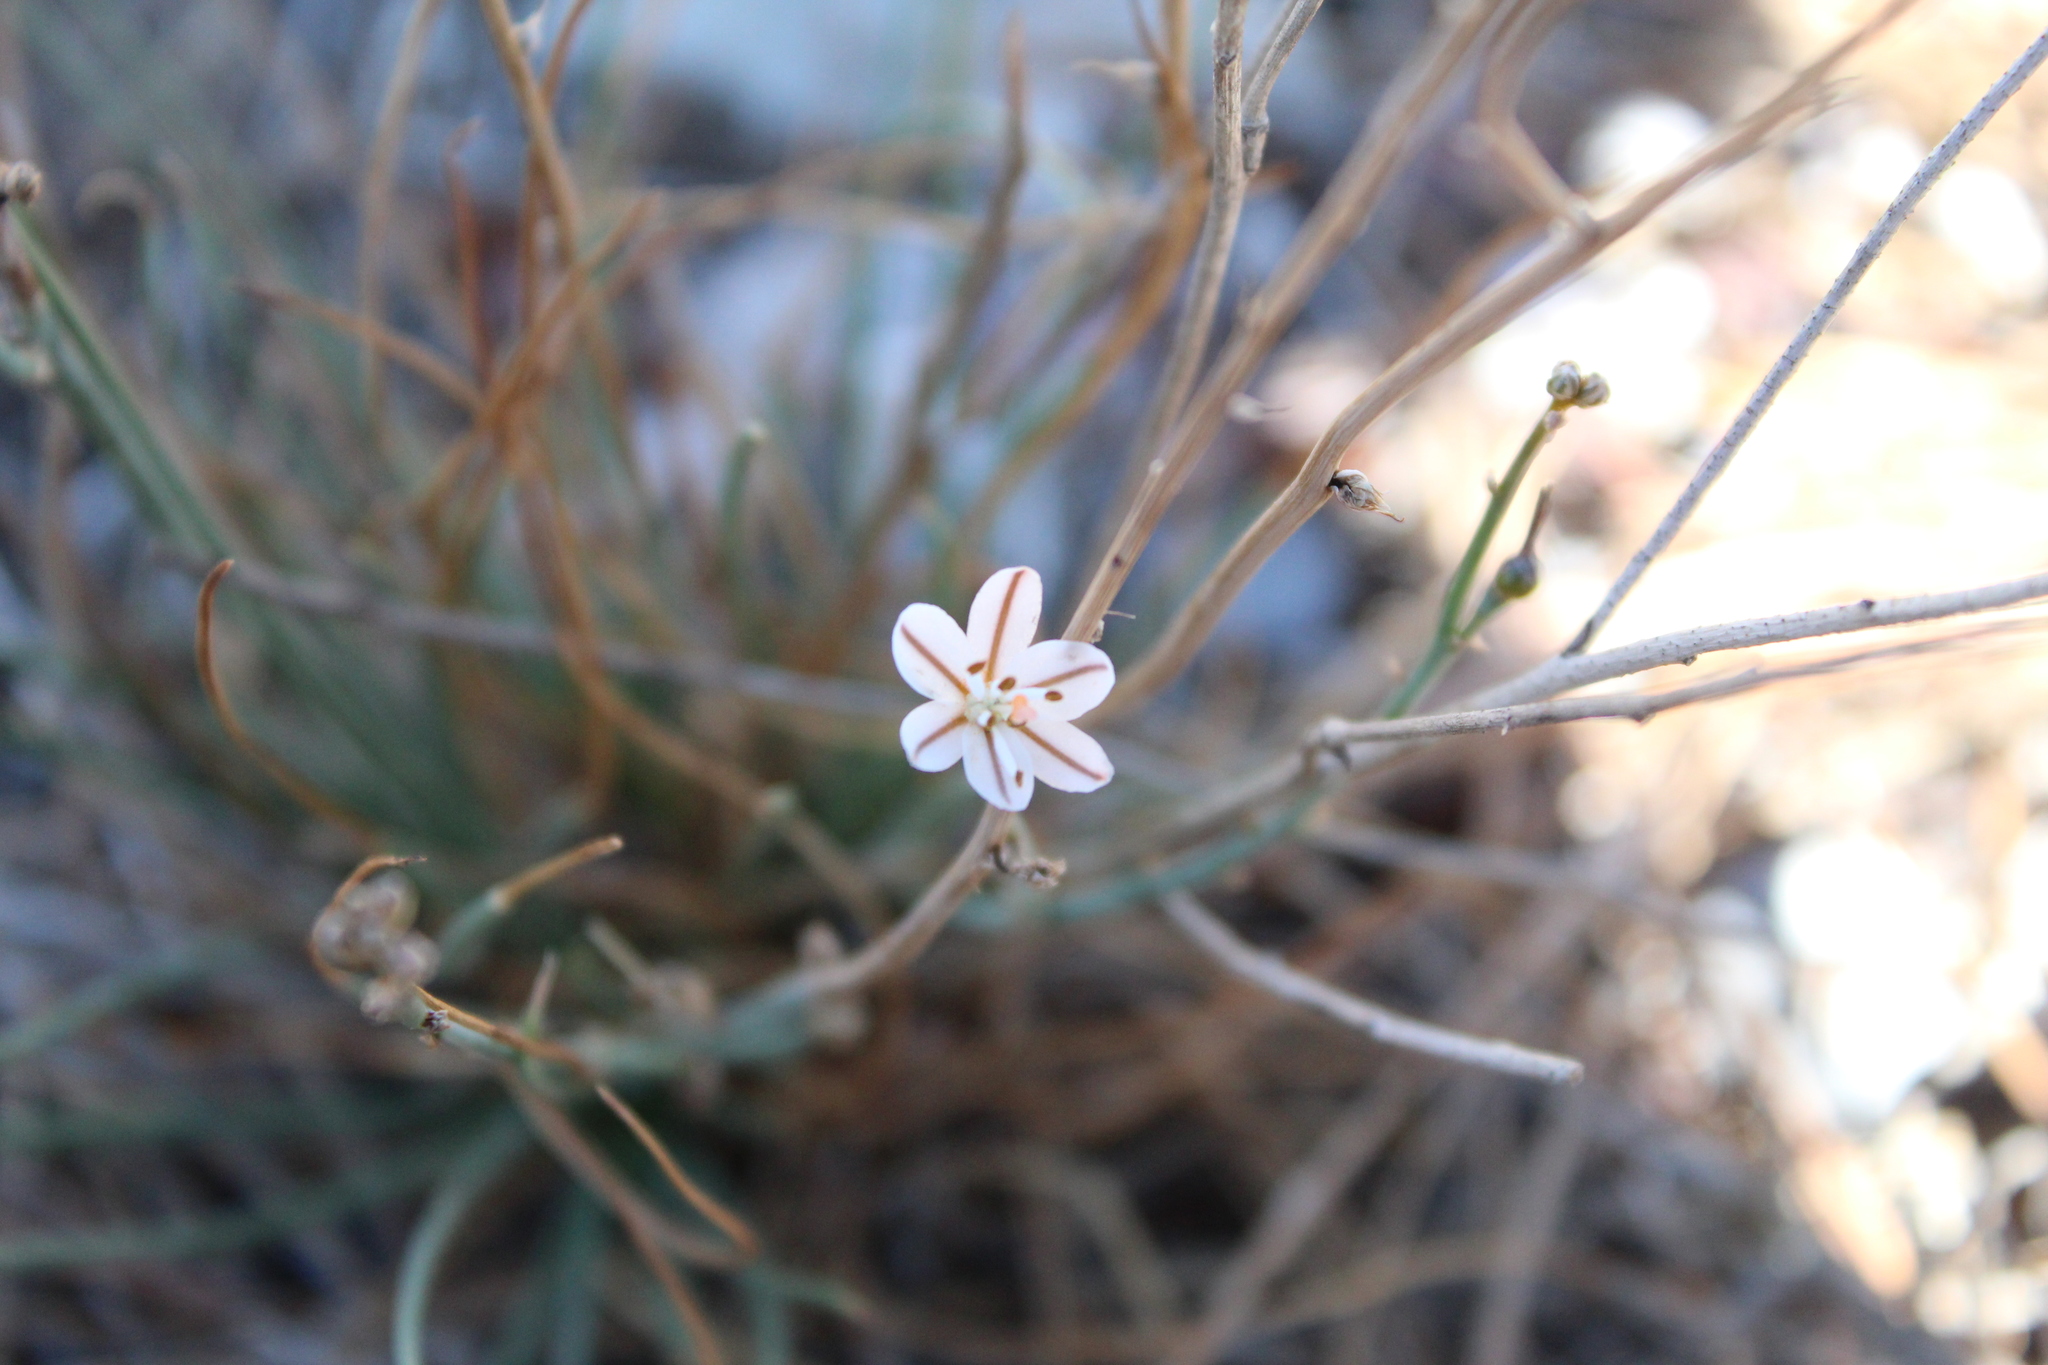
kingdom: Plantae
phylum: Tracheophyta
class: Liliopsida
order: Asparagales
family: Asphodelaceae
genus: Asphodelus
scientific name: Asphodelus fistulosus
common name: Onionweed
